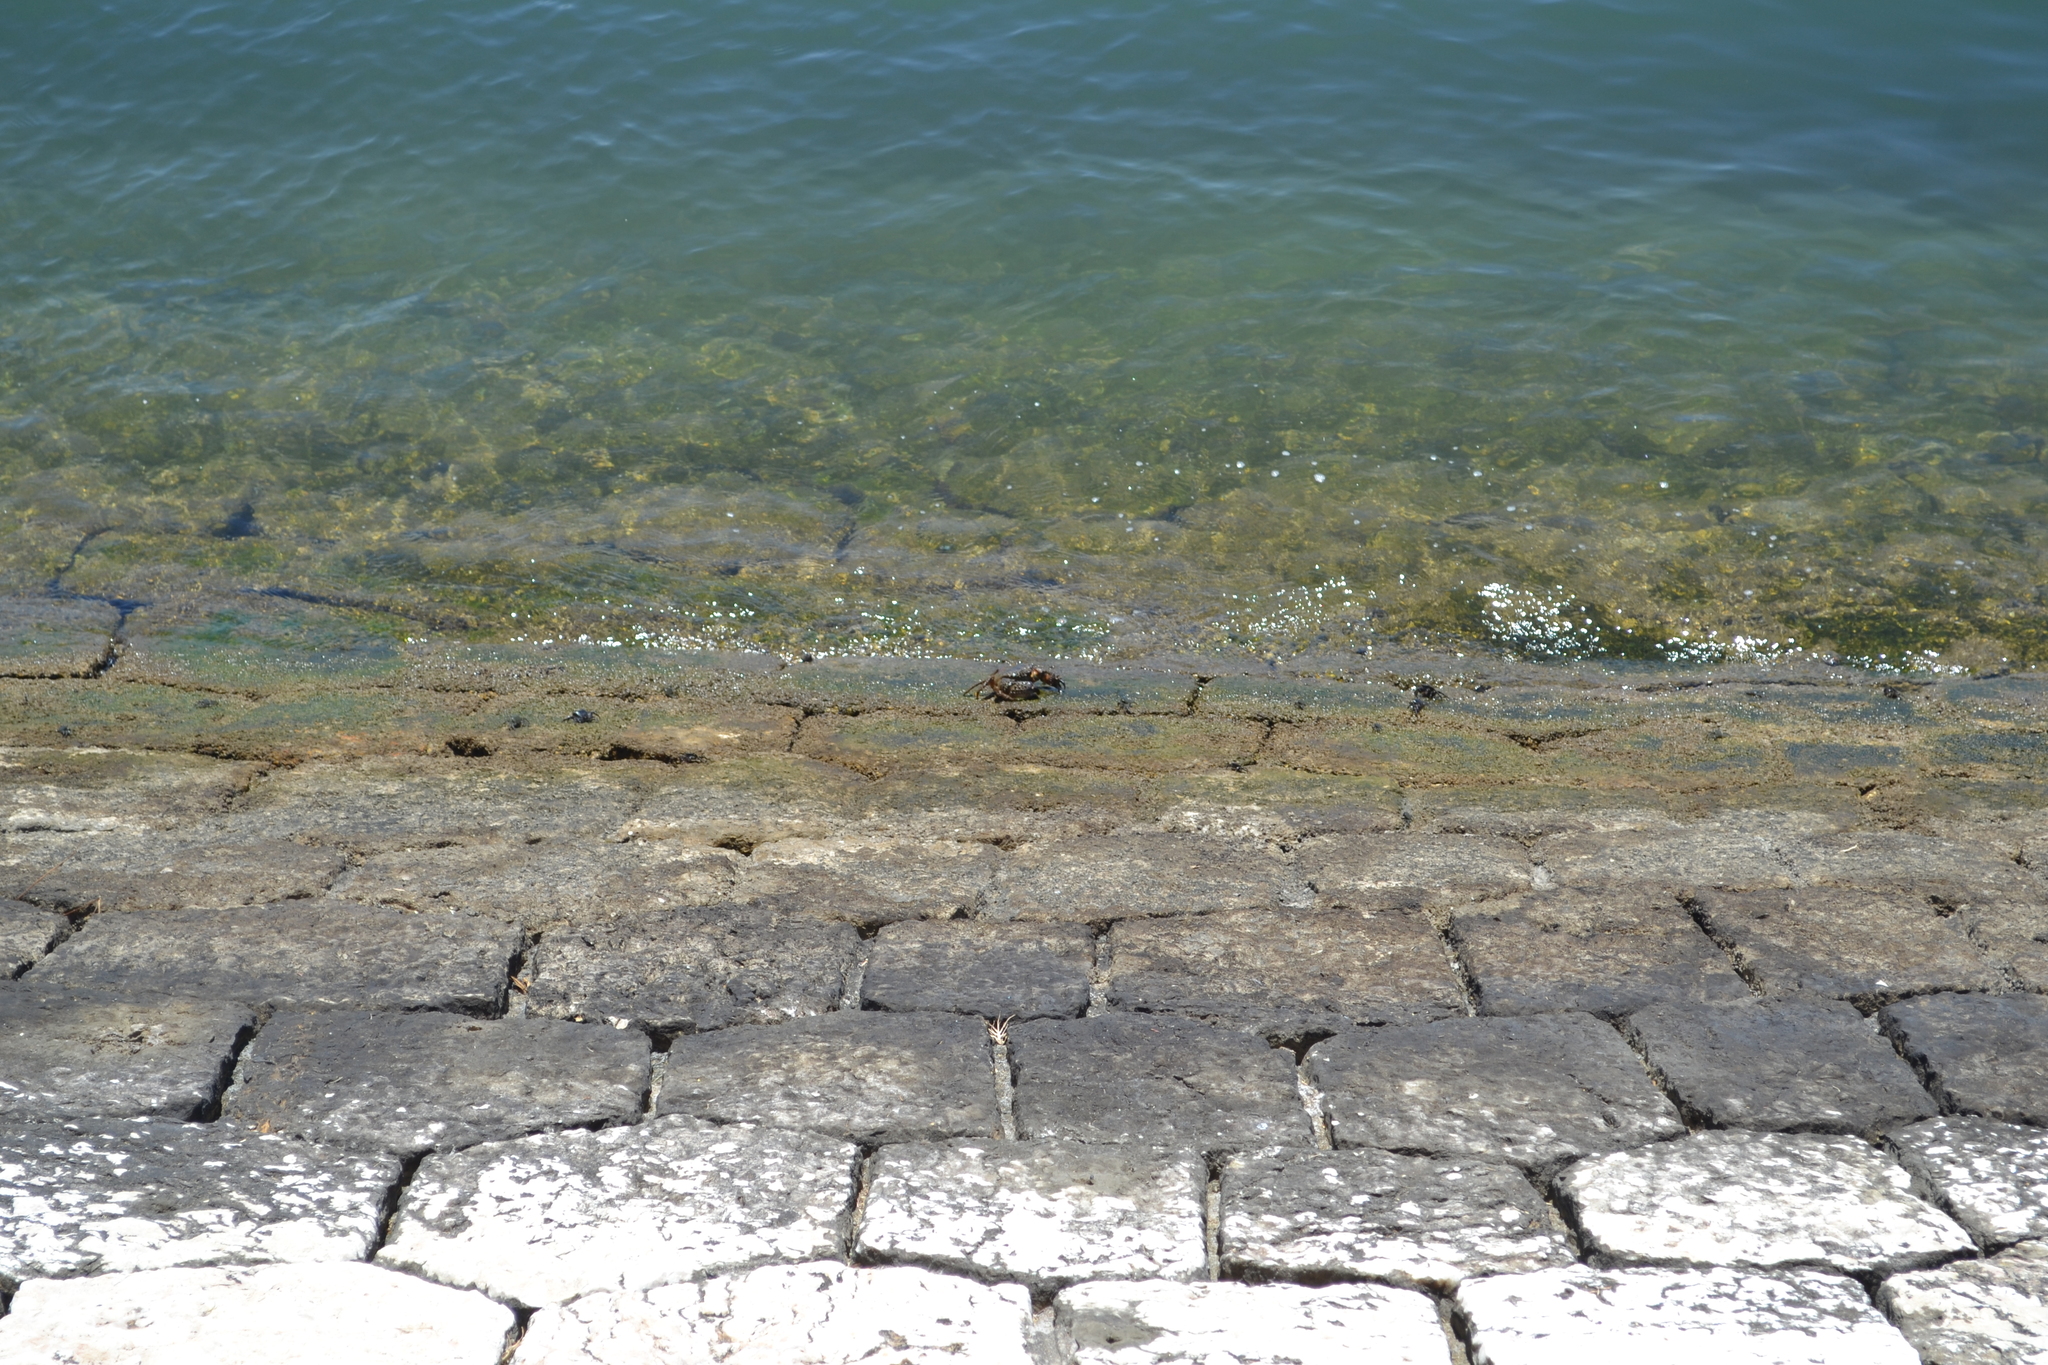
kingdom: Animalia
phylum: Arthropoda
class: Malacostraca
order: Decapoda
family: Eriphiidae
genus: Eriphia
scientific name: Eriphia verrucosa
